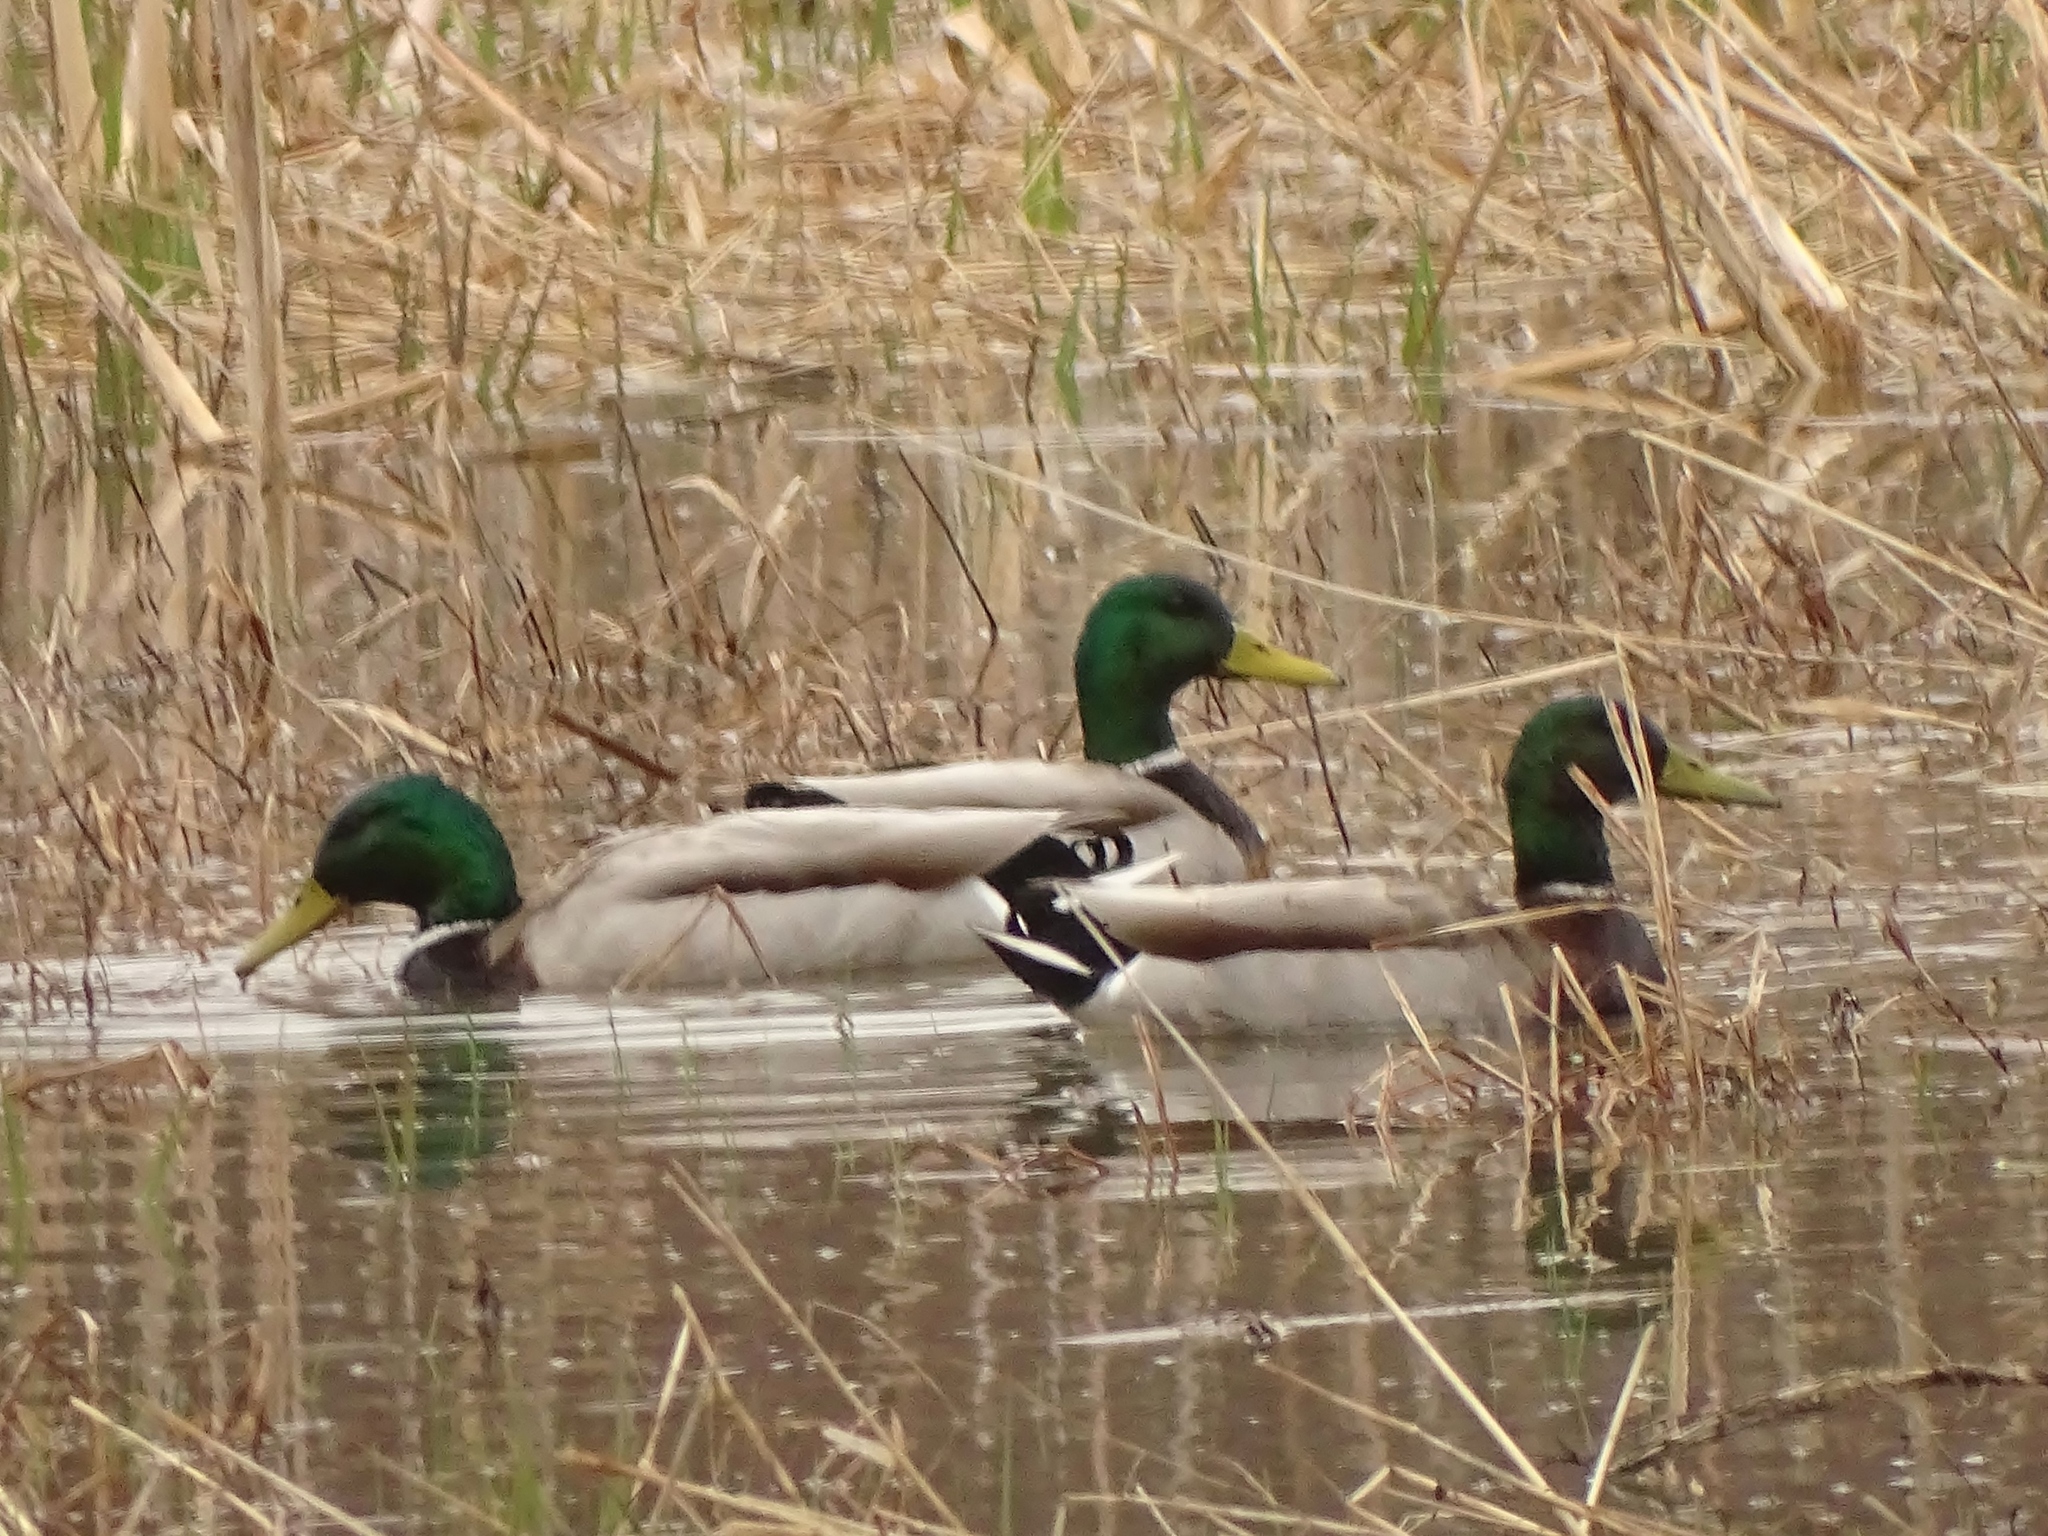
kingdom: Animalia
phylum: Chordata
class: Aves
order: Anseriformes
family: Anatidae
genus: Anas
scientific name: Anas platyrhynchos
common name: Mallard
